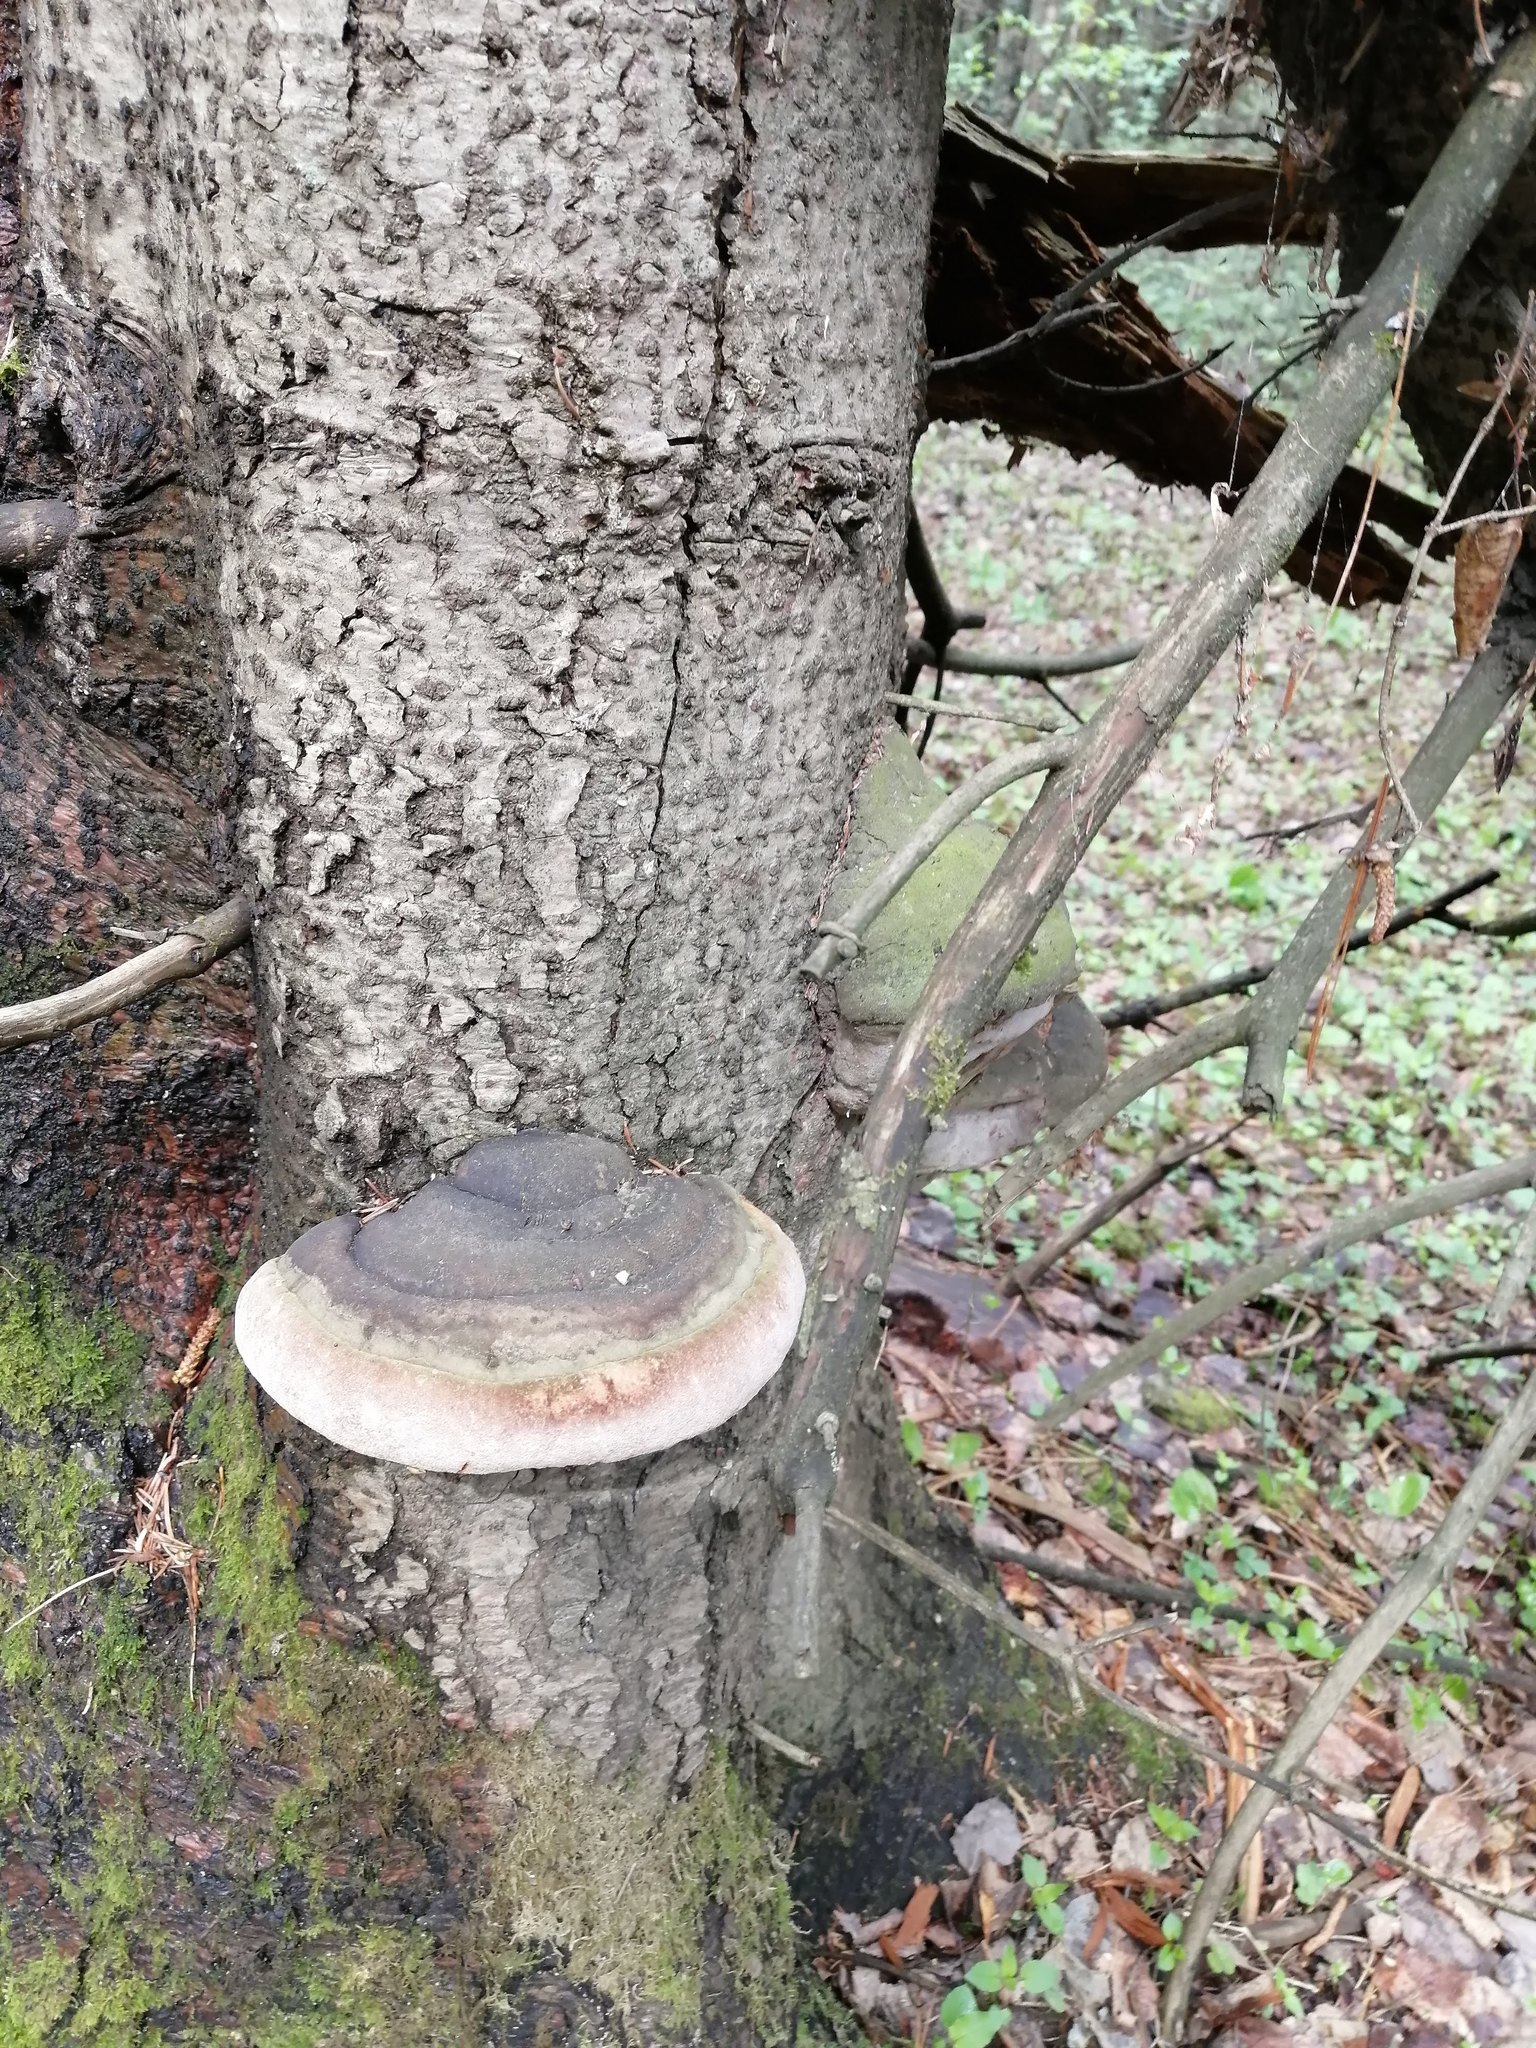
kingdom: Fungi
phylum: Basidiomycota
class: Agaricomycetes
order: Hymenochaetales
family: Hymenochaetaceae
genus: Phellinus
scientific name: Phellinus hartigii
